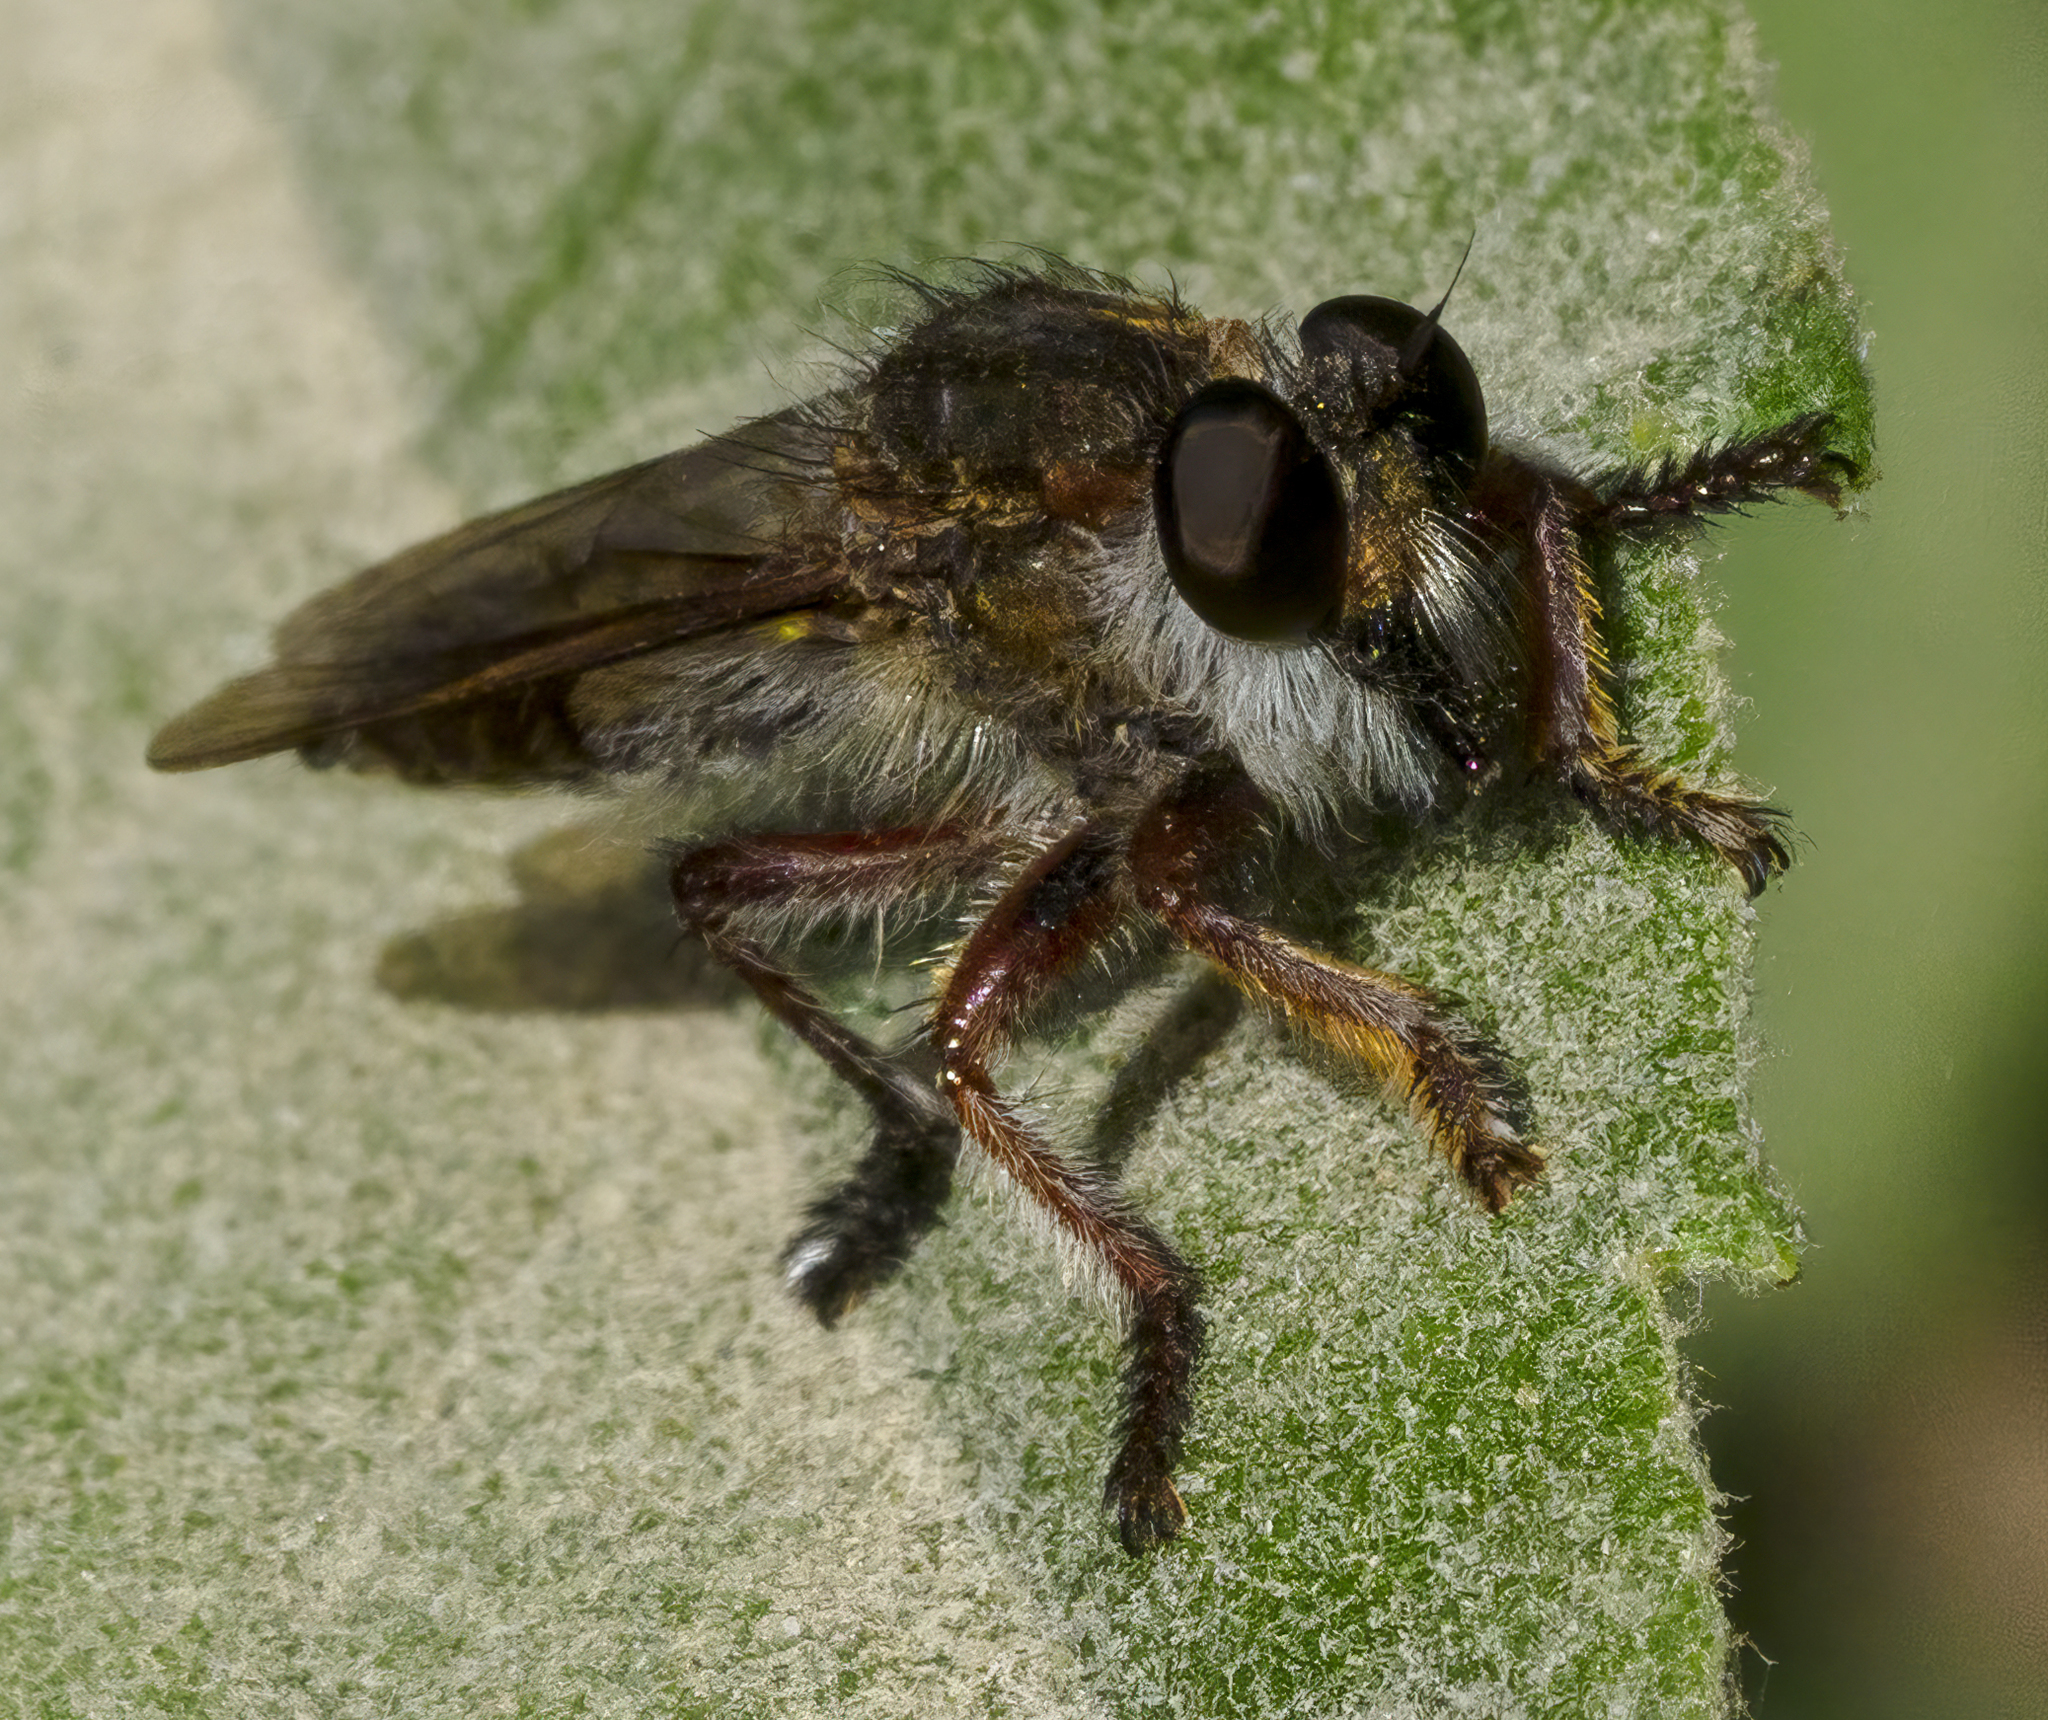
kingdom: Animalia
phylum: Arthropoda
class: Insecta
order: Diptera
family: Asilidae
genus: Mallophora
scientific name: Mallophora
